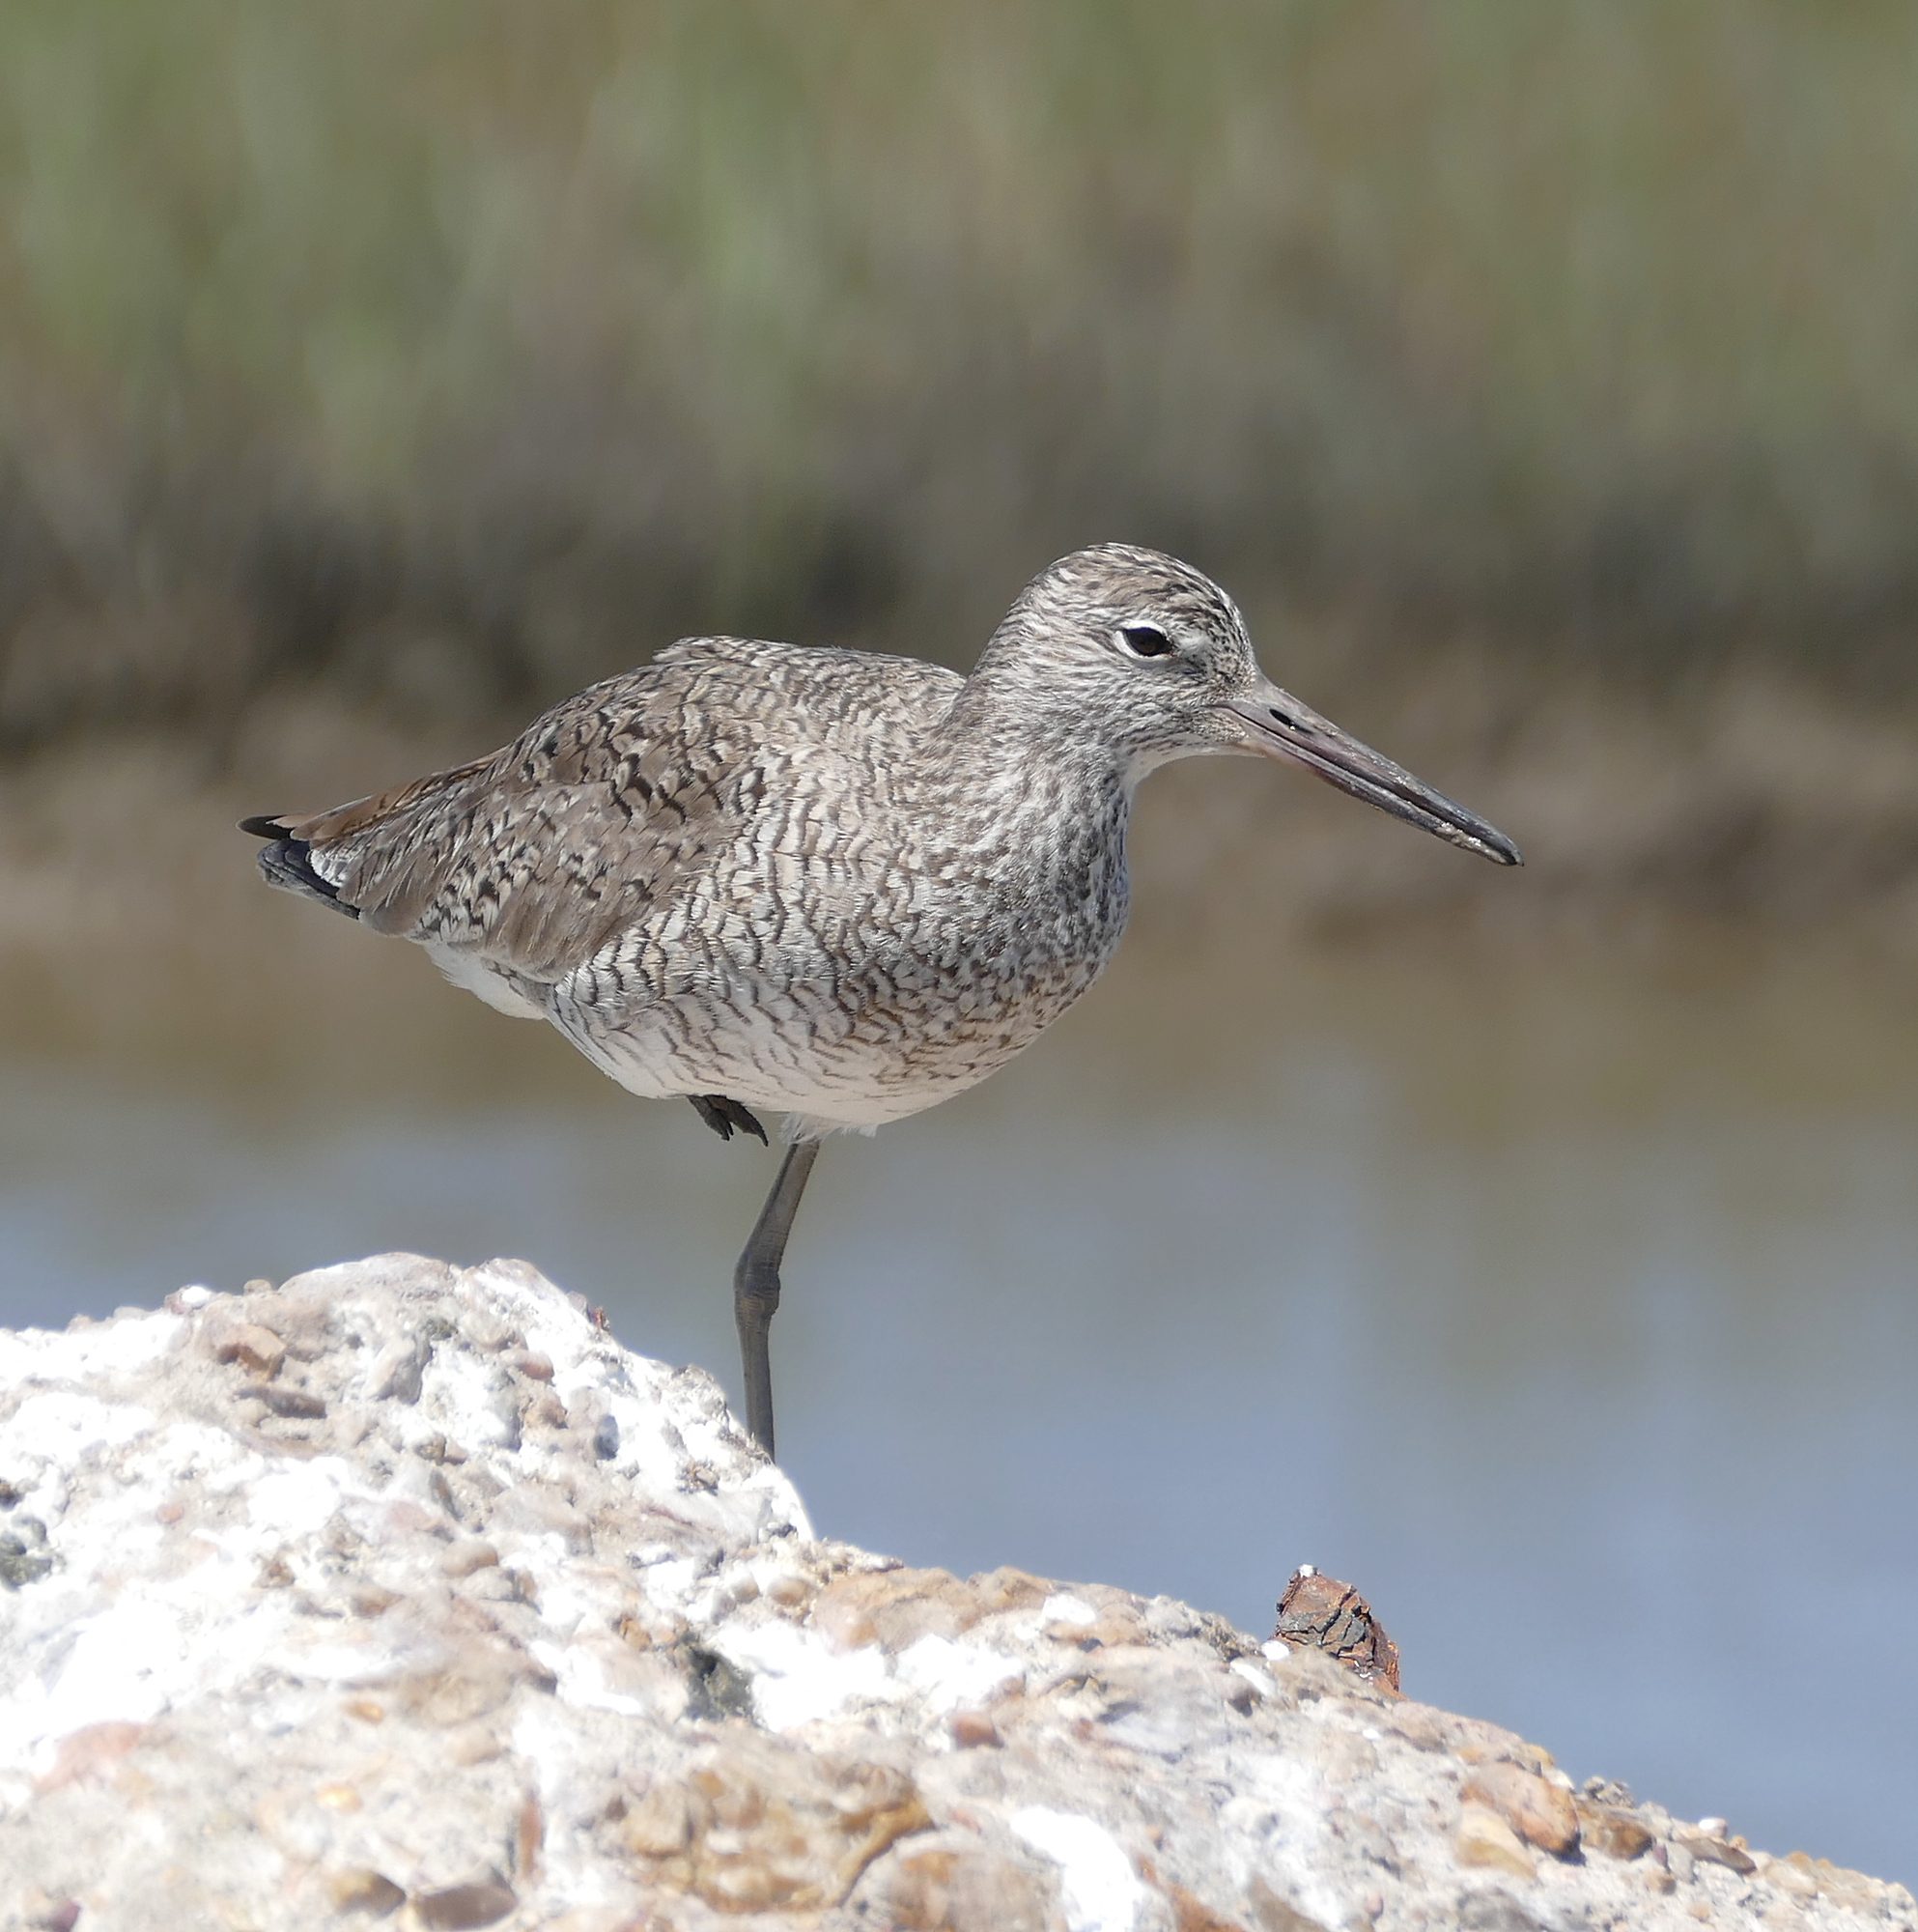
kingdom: Animalia
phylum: Chordata
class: Aves
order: Charadriiformes
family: Scolopacidae
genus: Tringa
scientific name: Tringa semipalmata
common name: Willet
